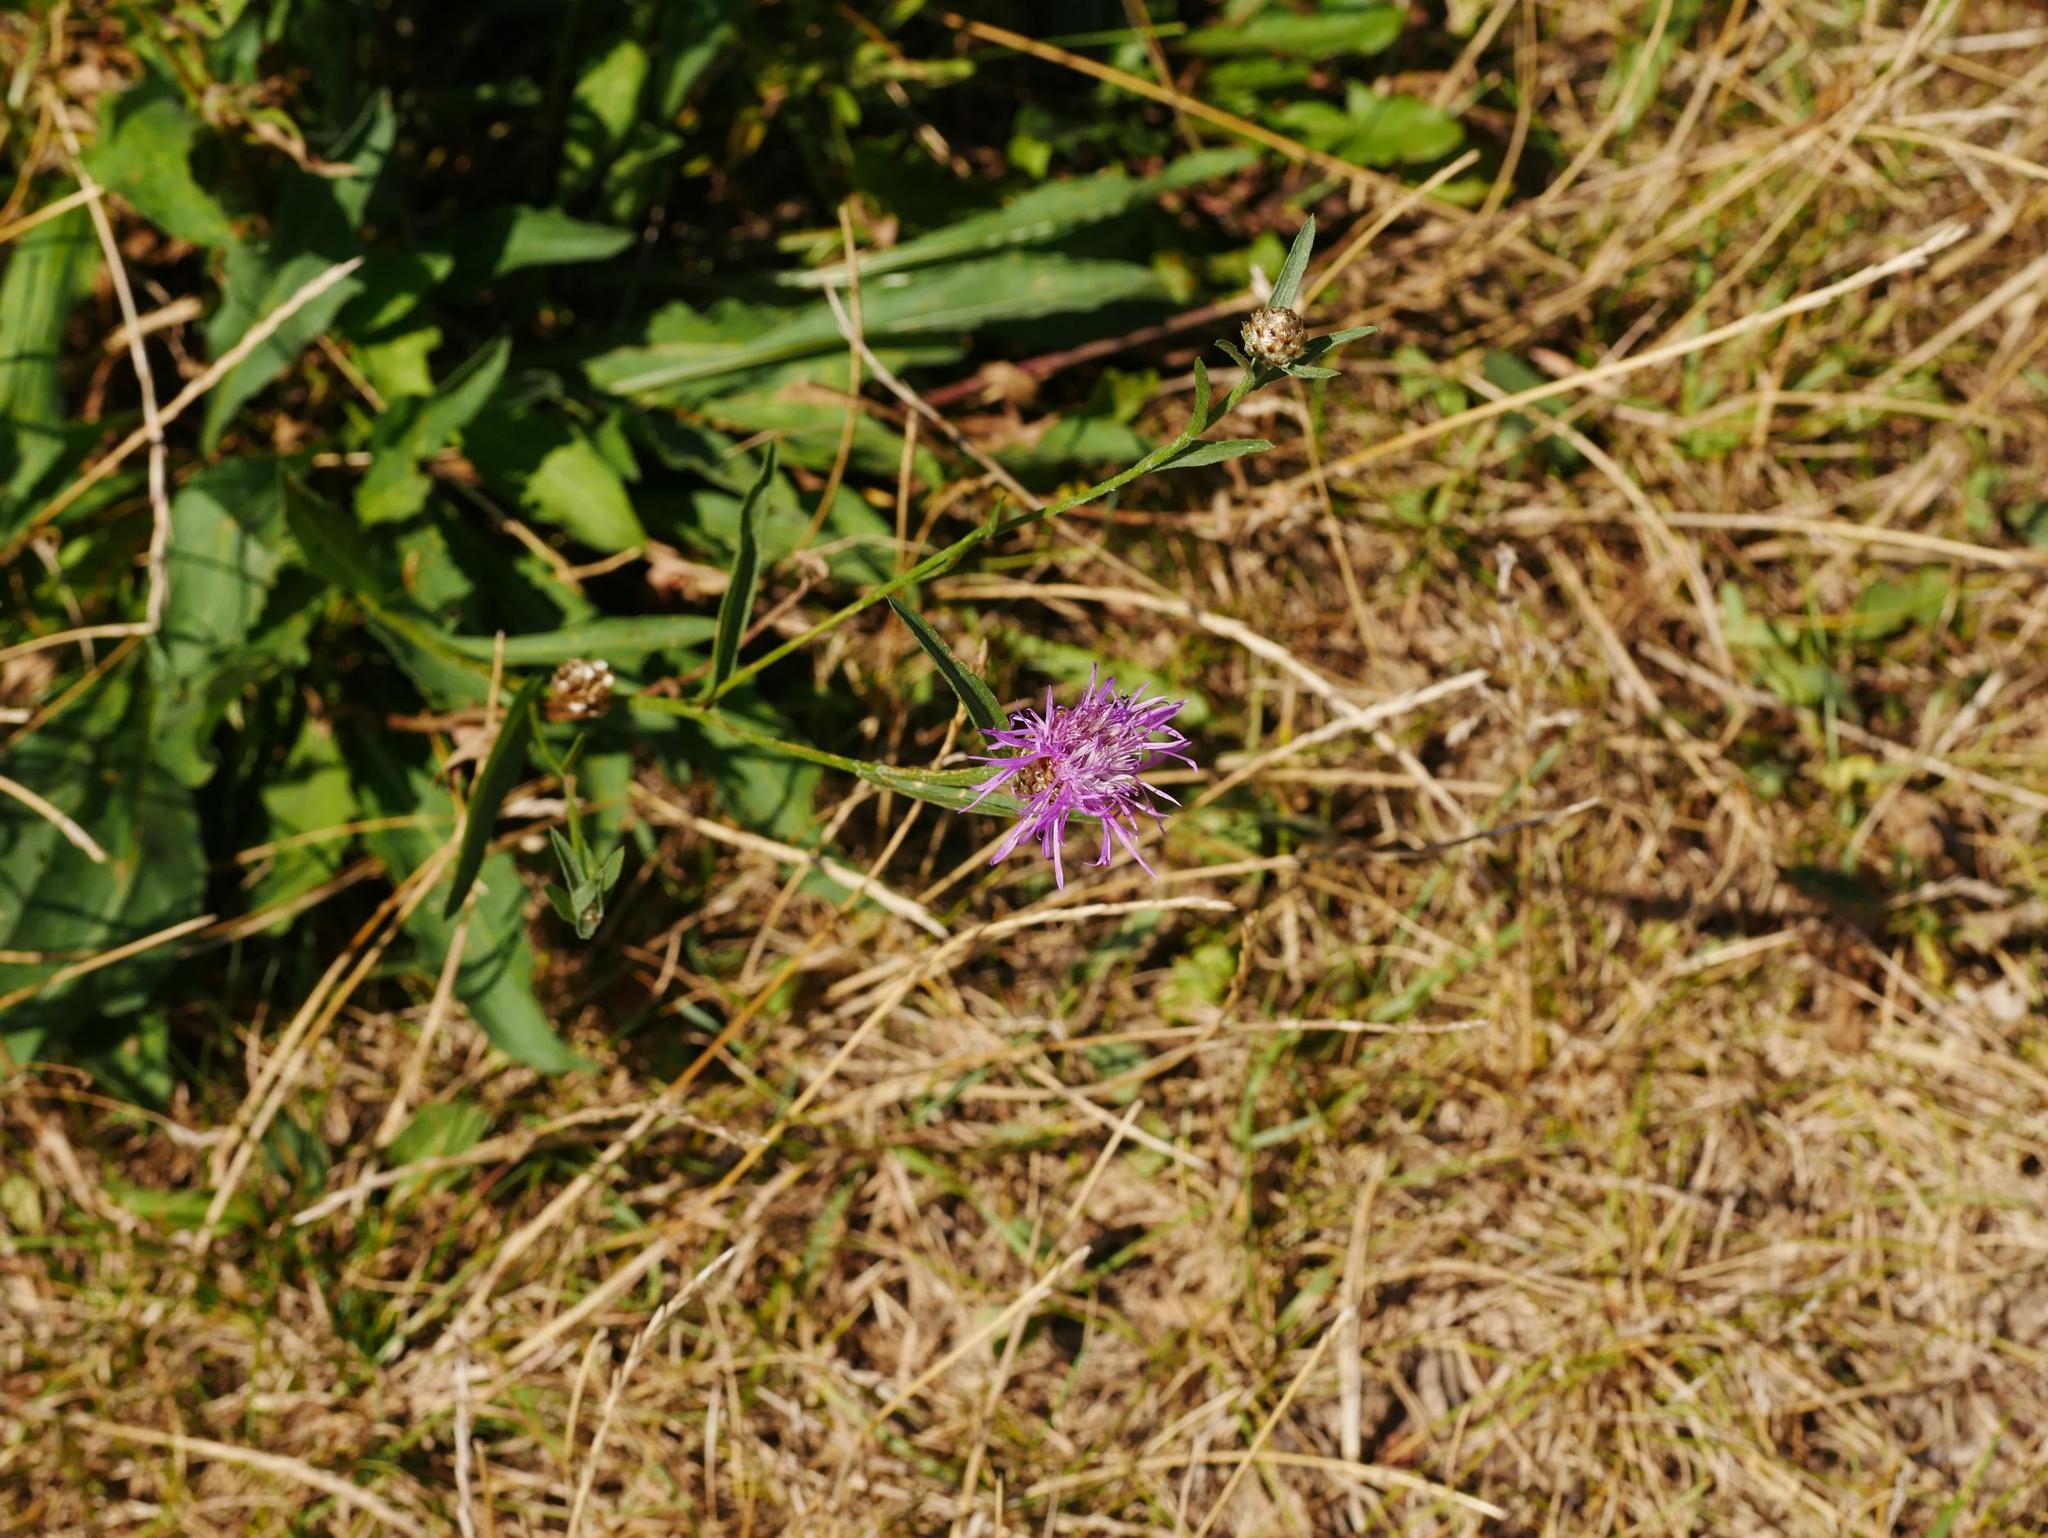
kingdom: Plantae
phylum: Tracheophyta
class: Magnoliopsida
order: Asterales
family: Asteraceae
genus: Centaurea
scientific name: Centaurea jacea
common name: Brown knapweed
